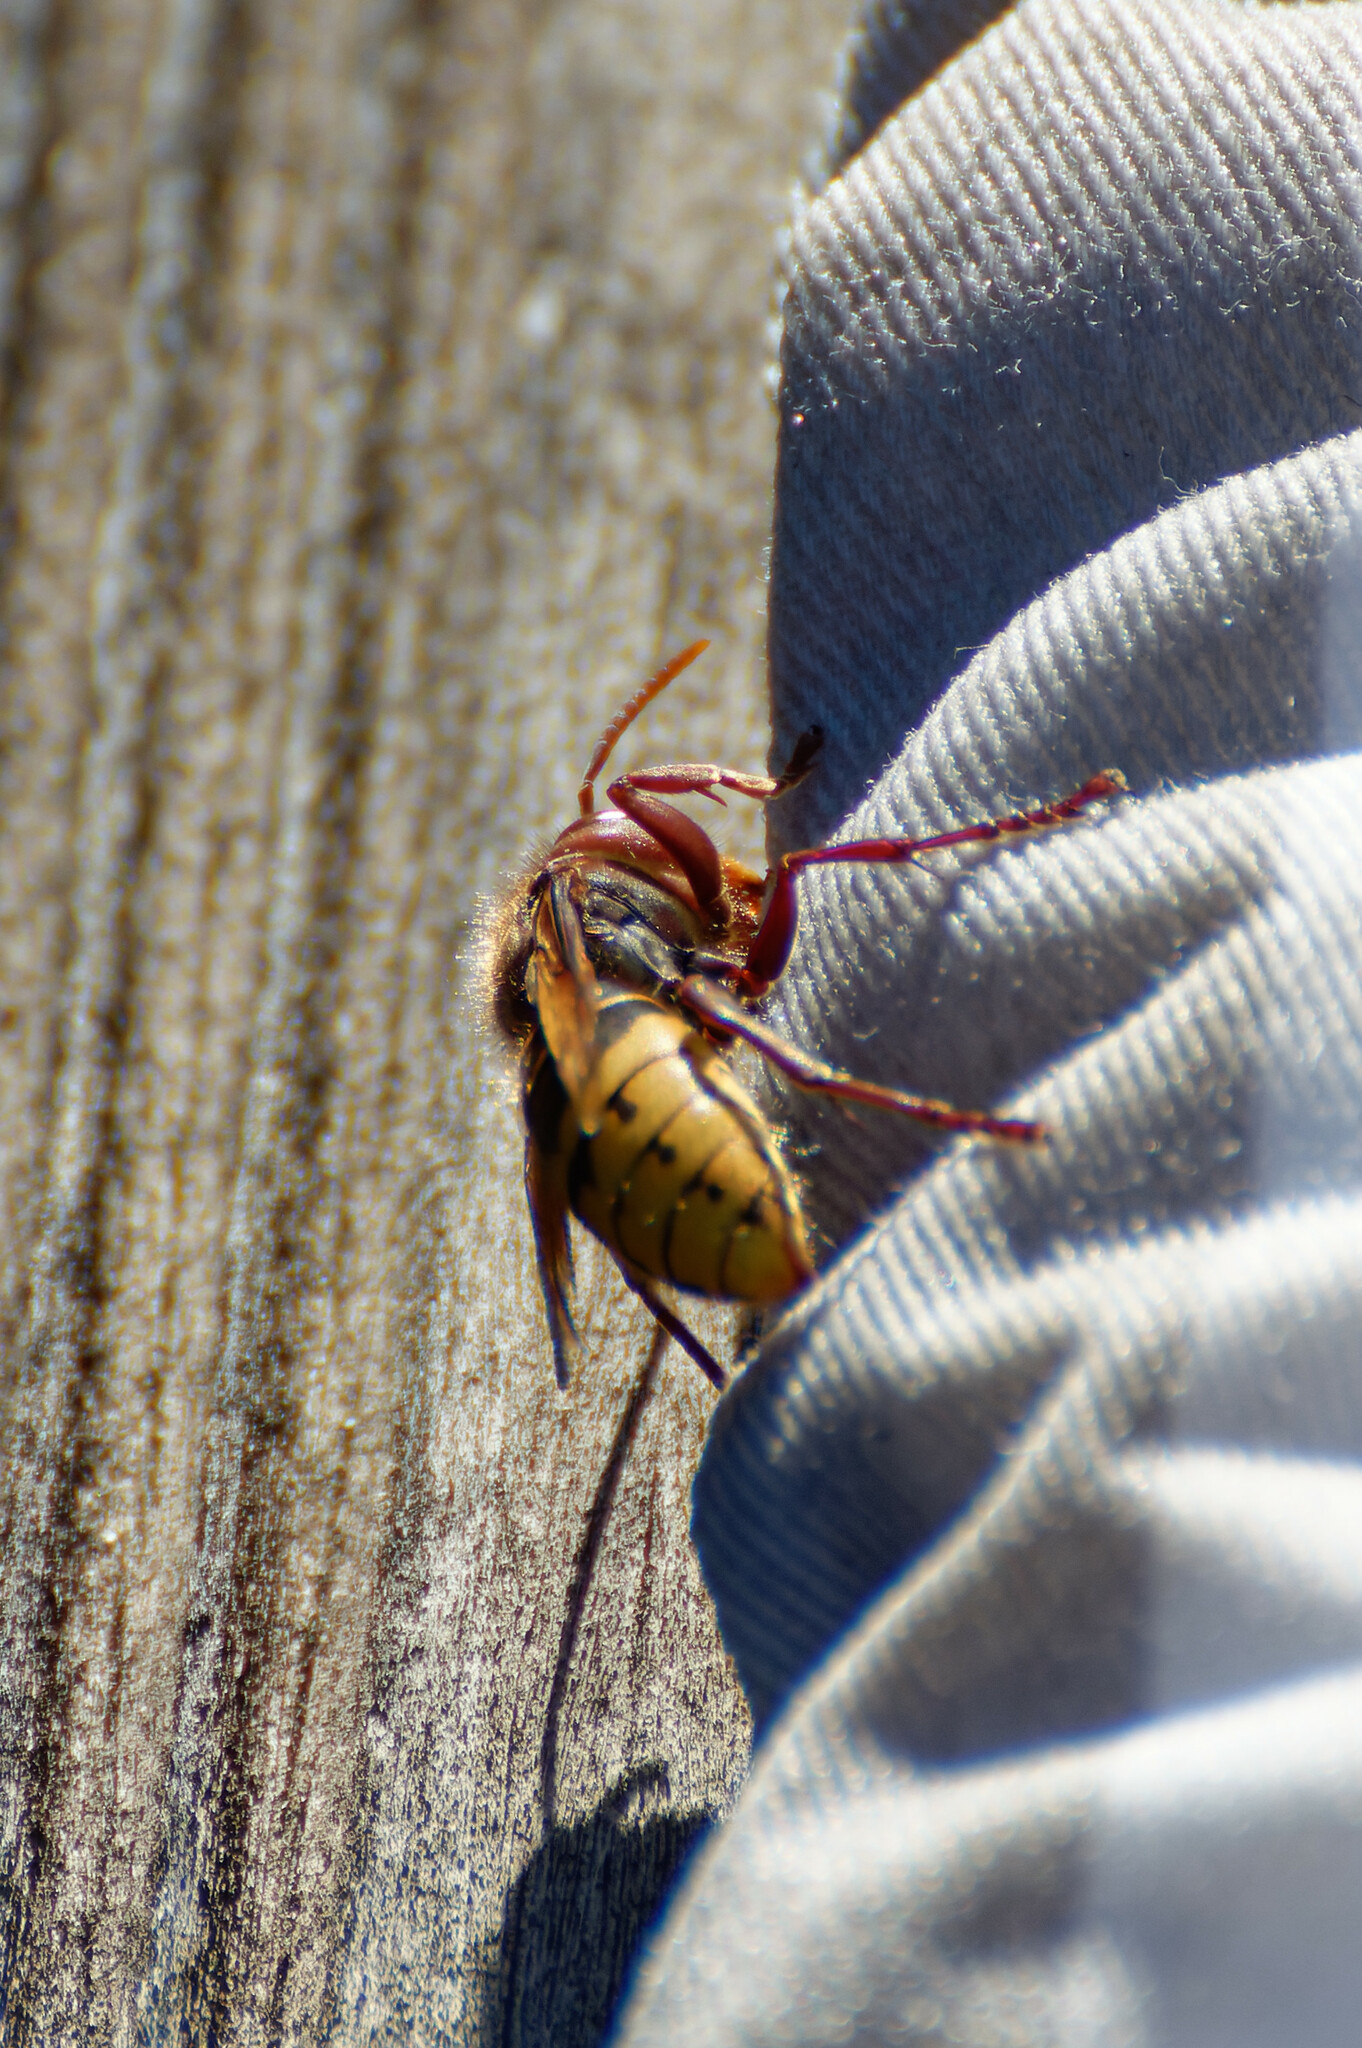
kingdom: Animalia
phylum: Arthropoda
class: Insecta
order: Hymenoptera
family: Vespidae
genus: Vespa
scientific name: Vespa crabro
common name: Hornet
